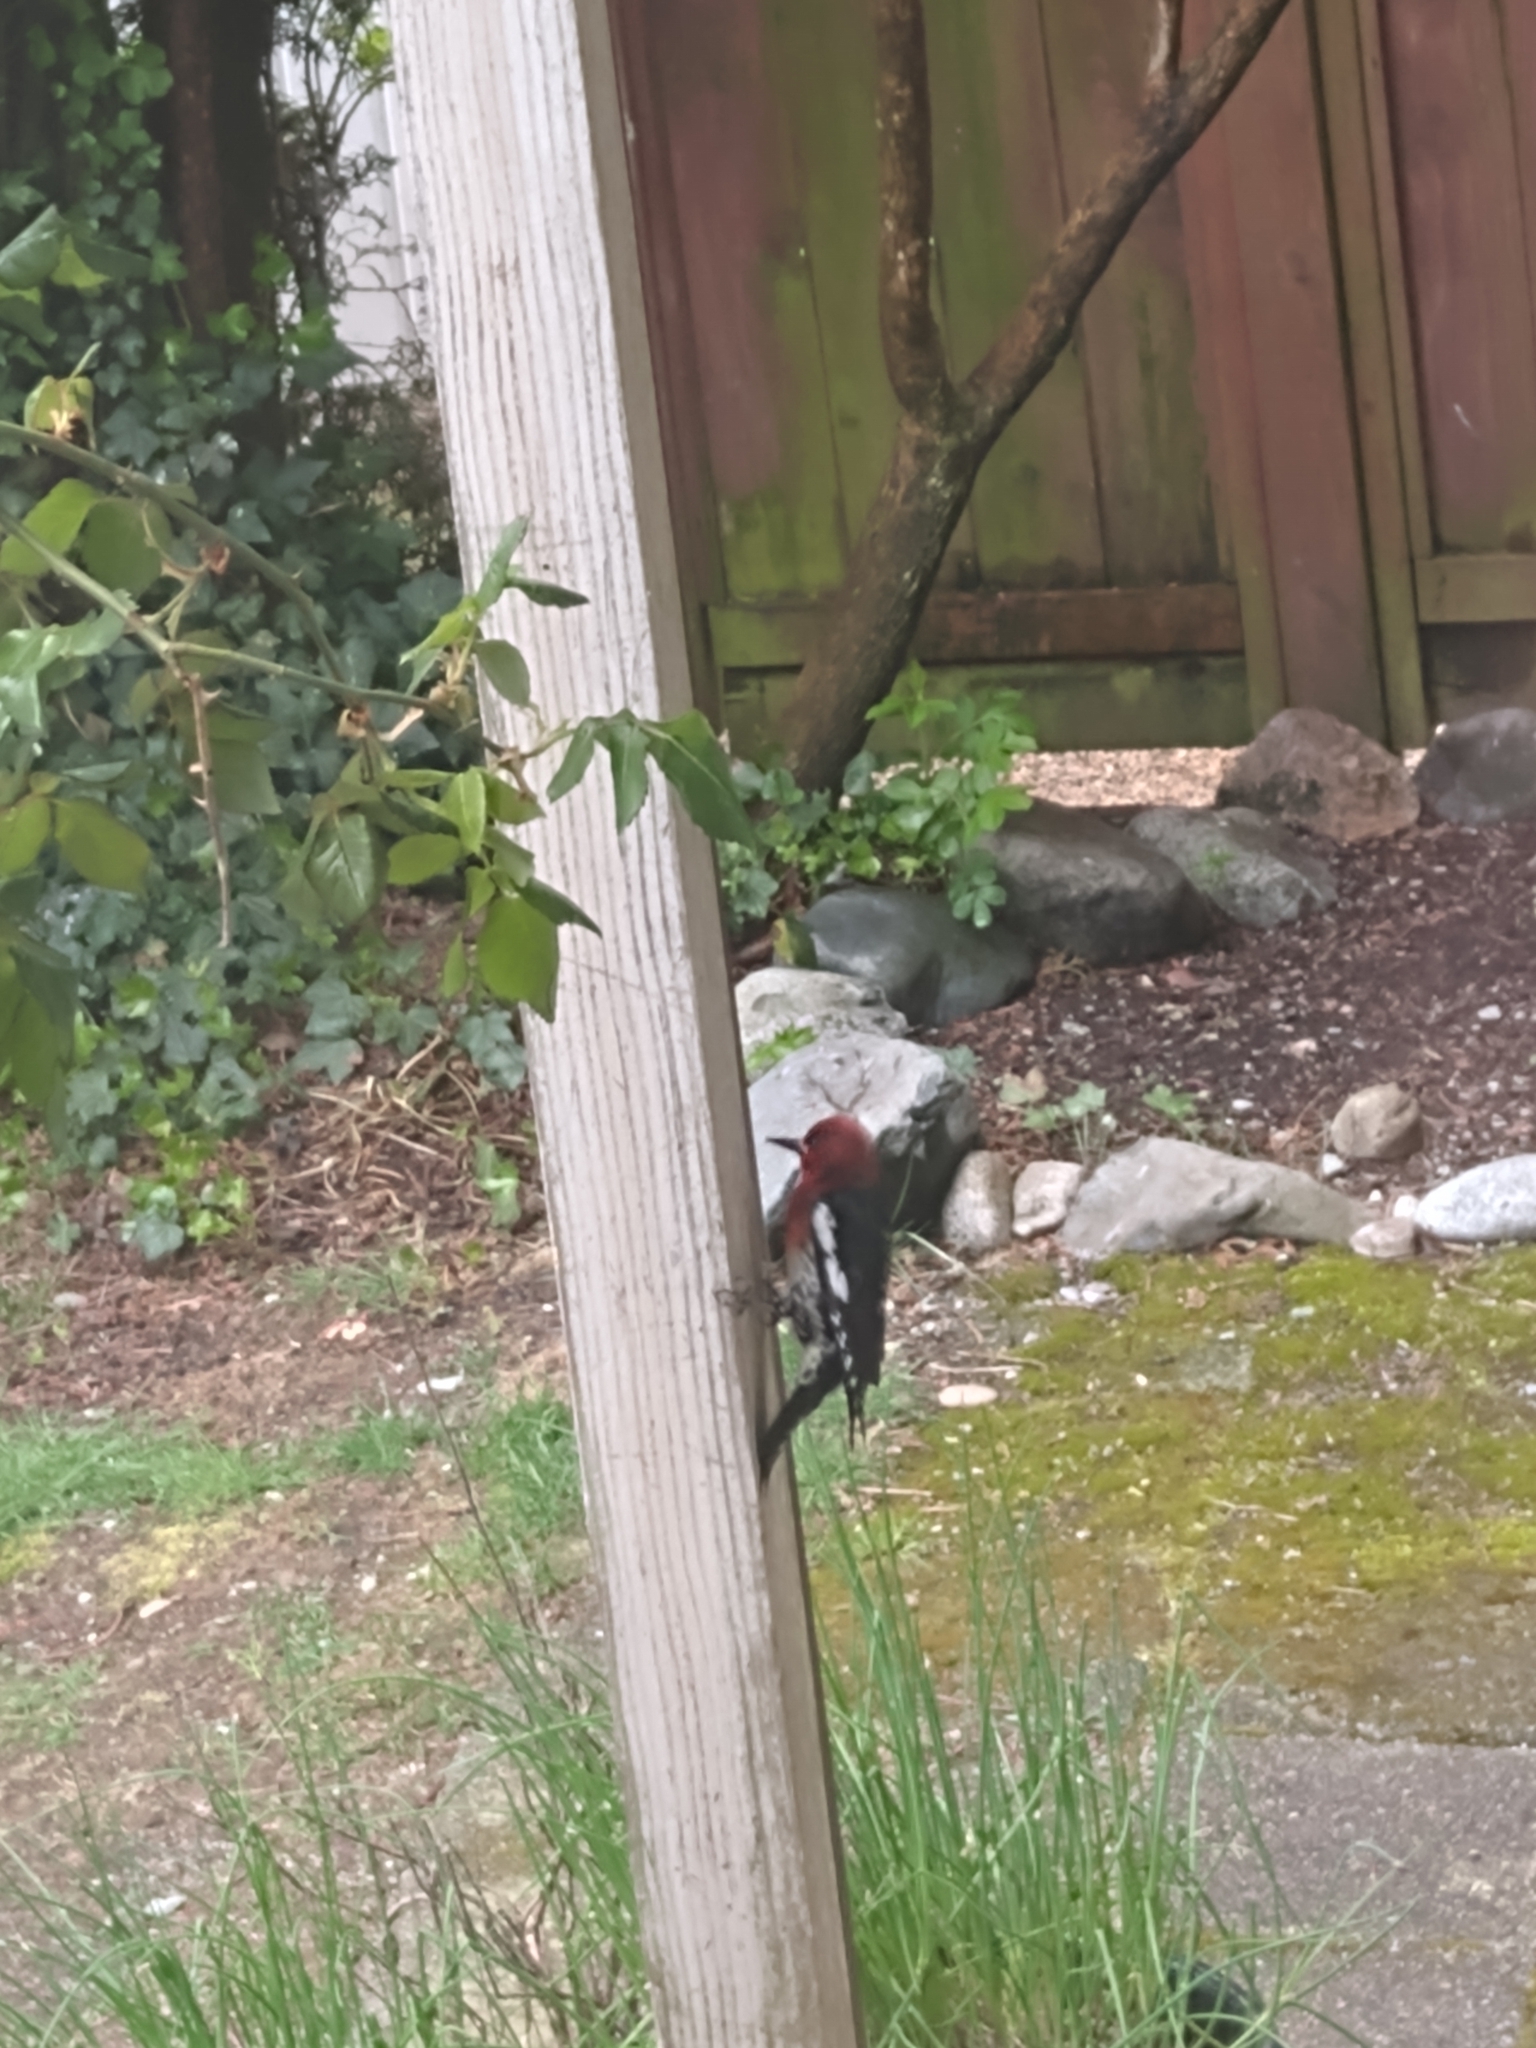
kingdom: Animalia
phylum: Chordata
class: Aves
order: Piciformes
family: Picidae
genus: Sphyrapicus
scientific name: Sphyrapicus ruber
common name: Red-breasted sapsucker
